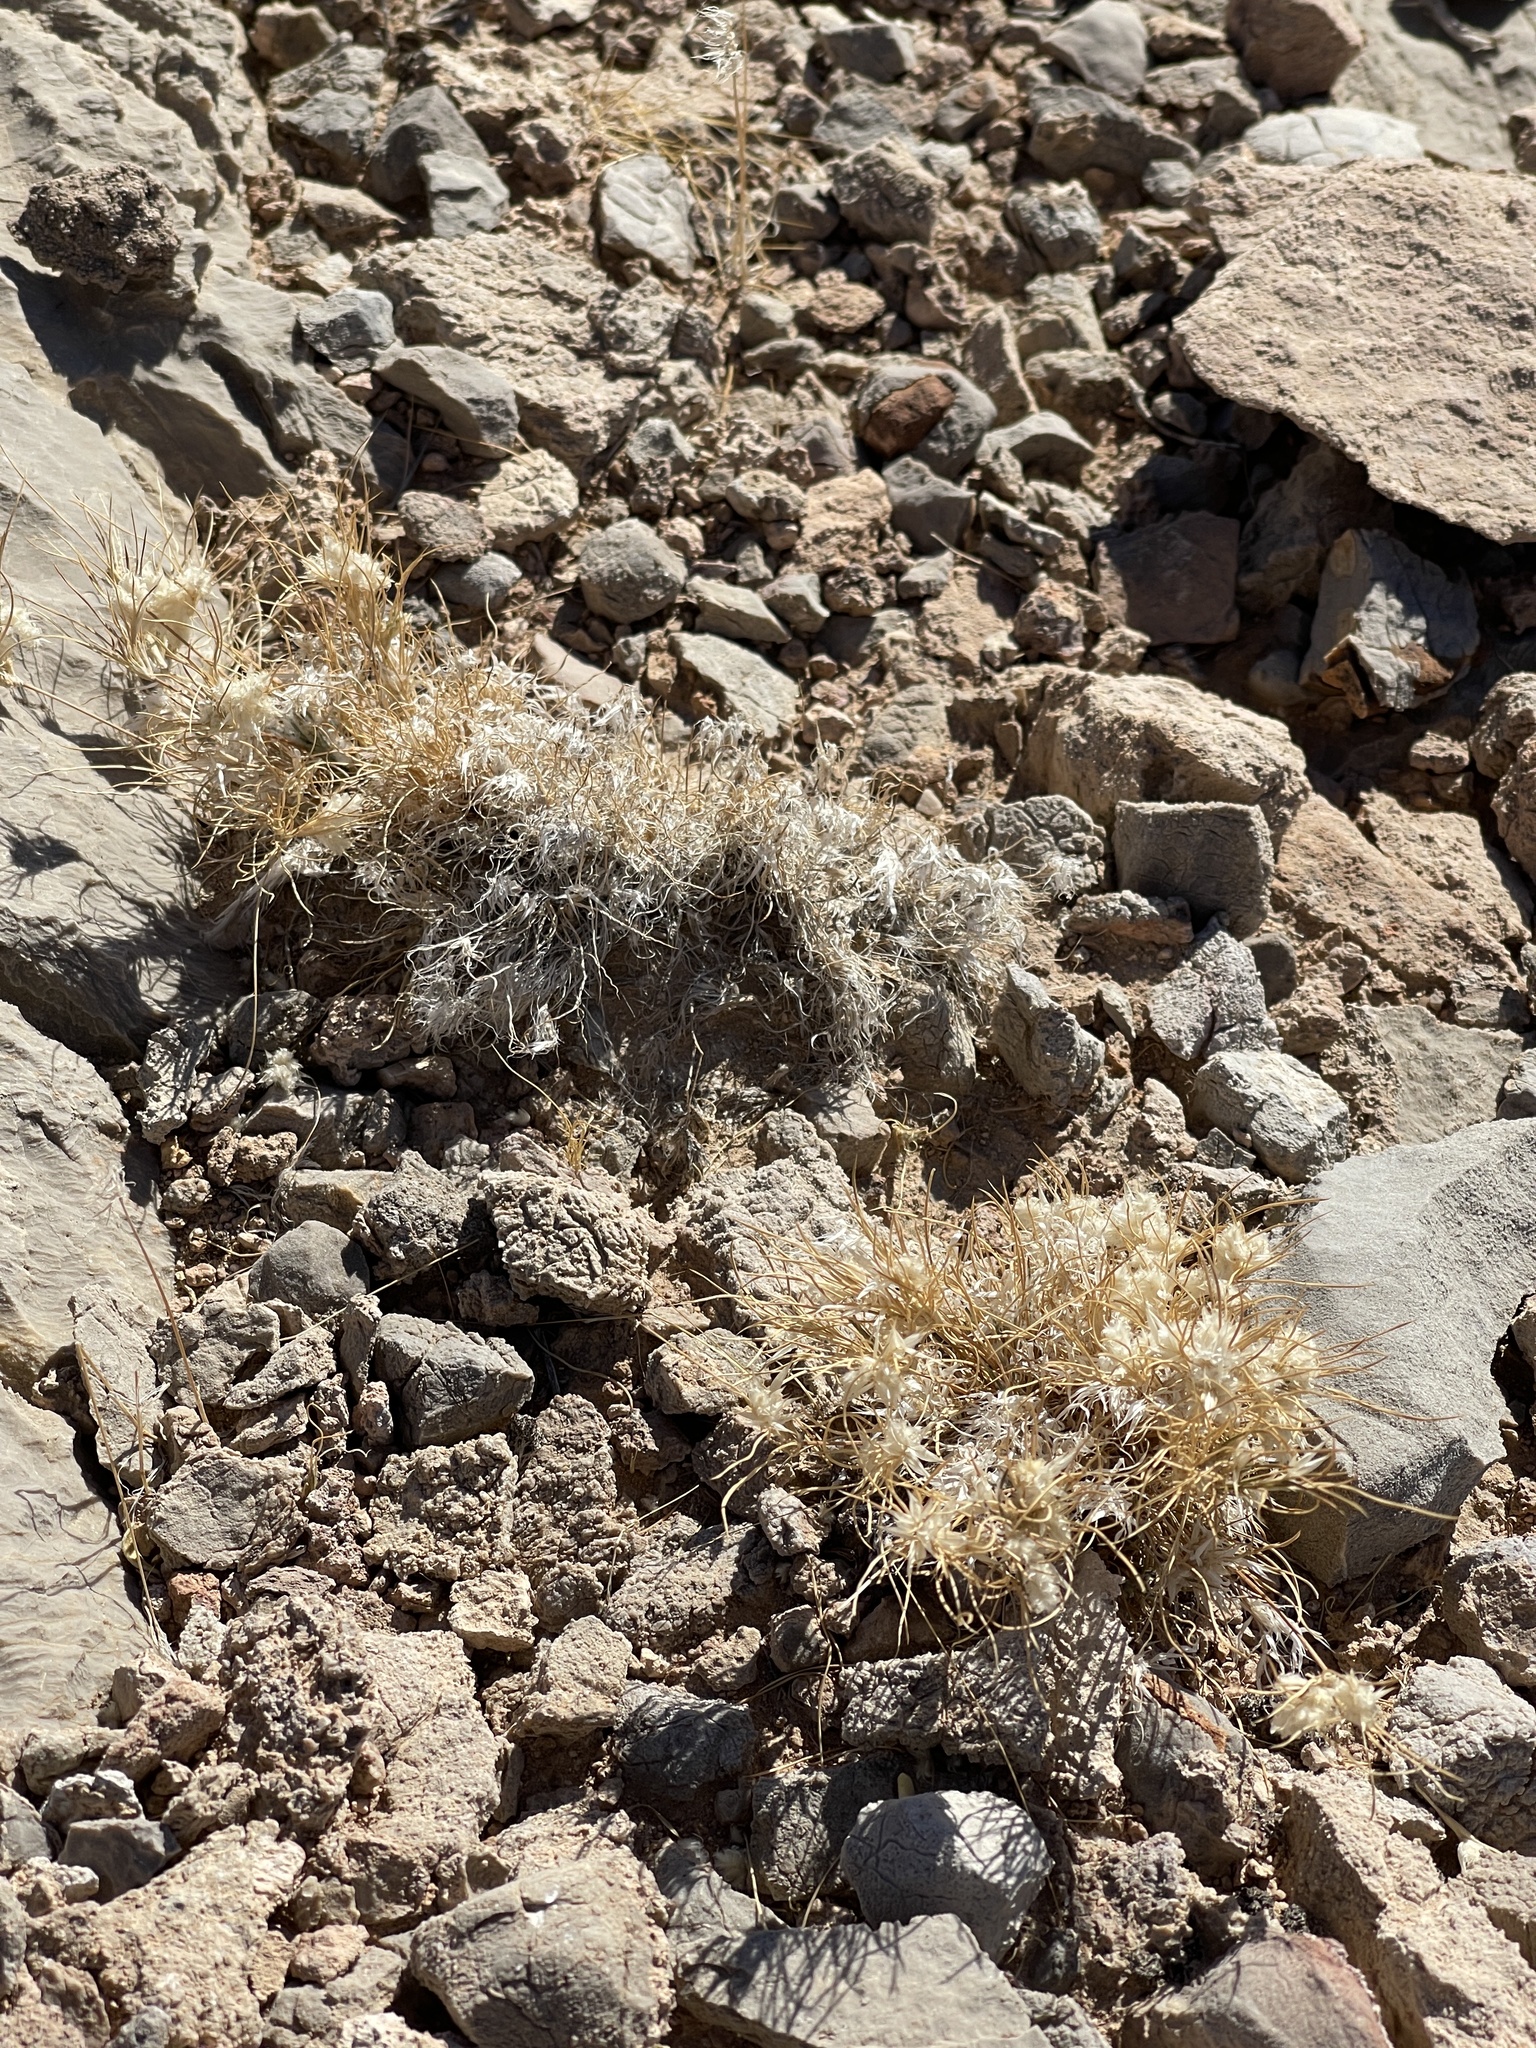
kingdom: Plantae
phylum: Tracheophyta
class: Liliopsida
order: Poales
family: Poaceae
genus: Dasyochloa
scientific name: Dasyochloa pulchella
